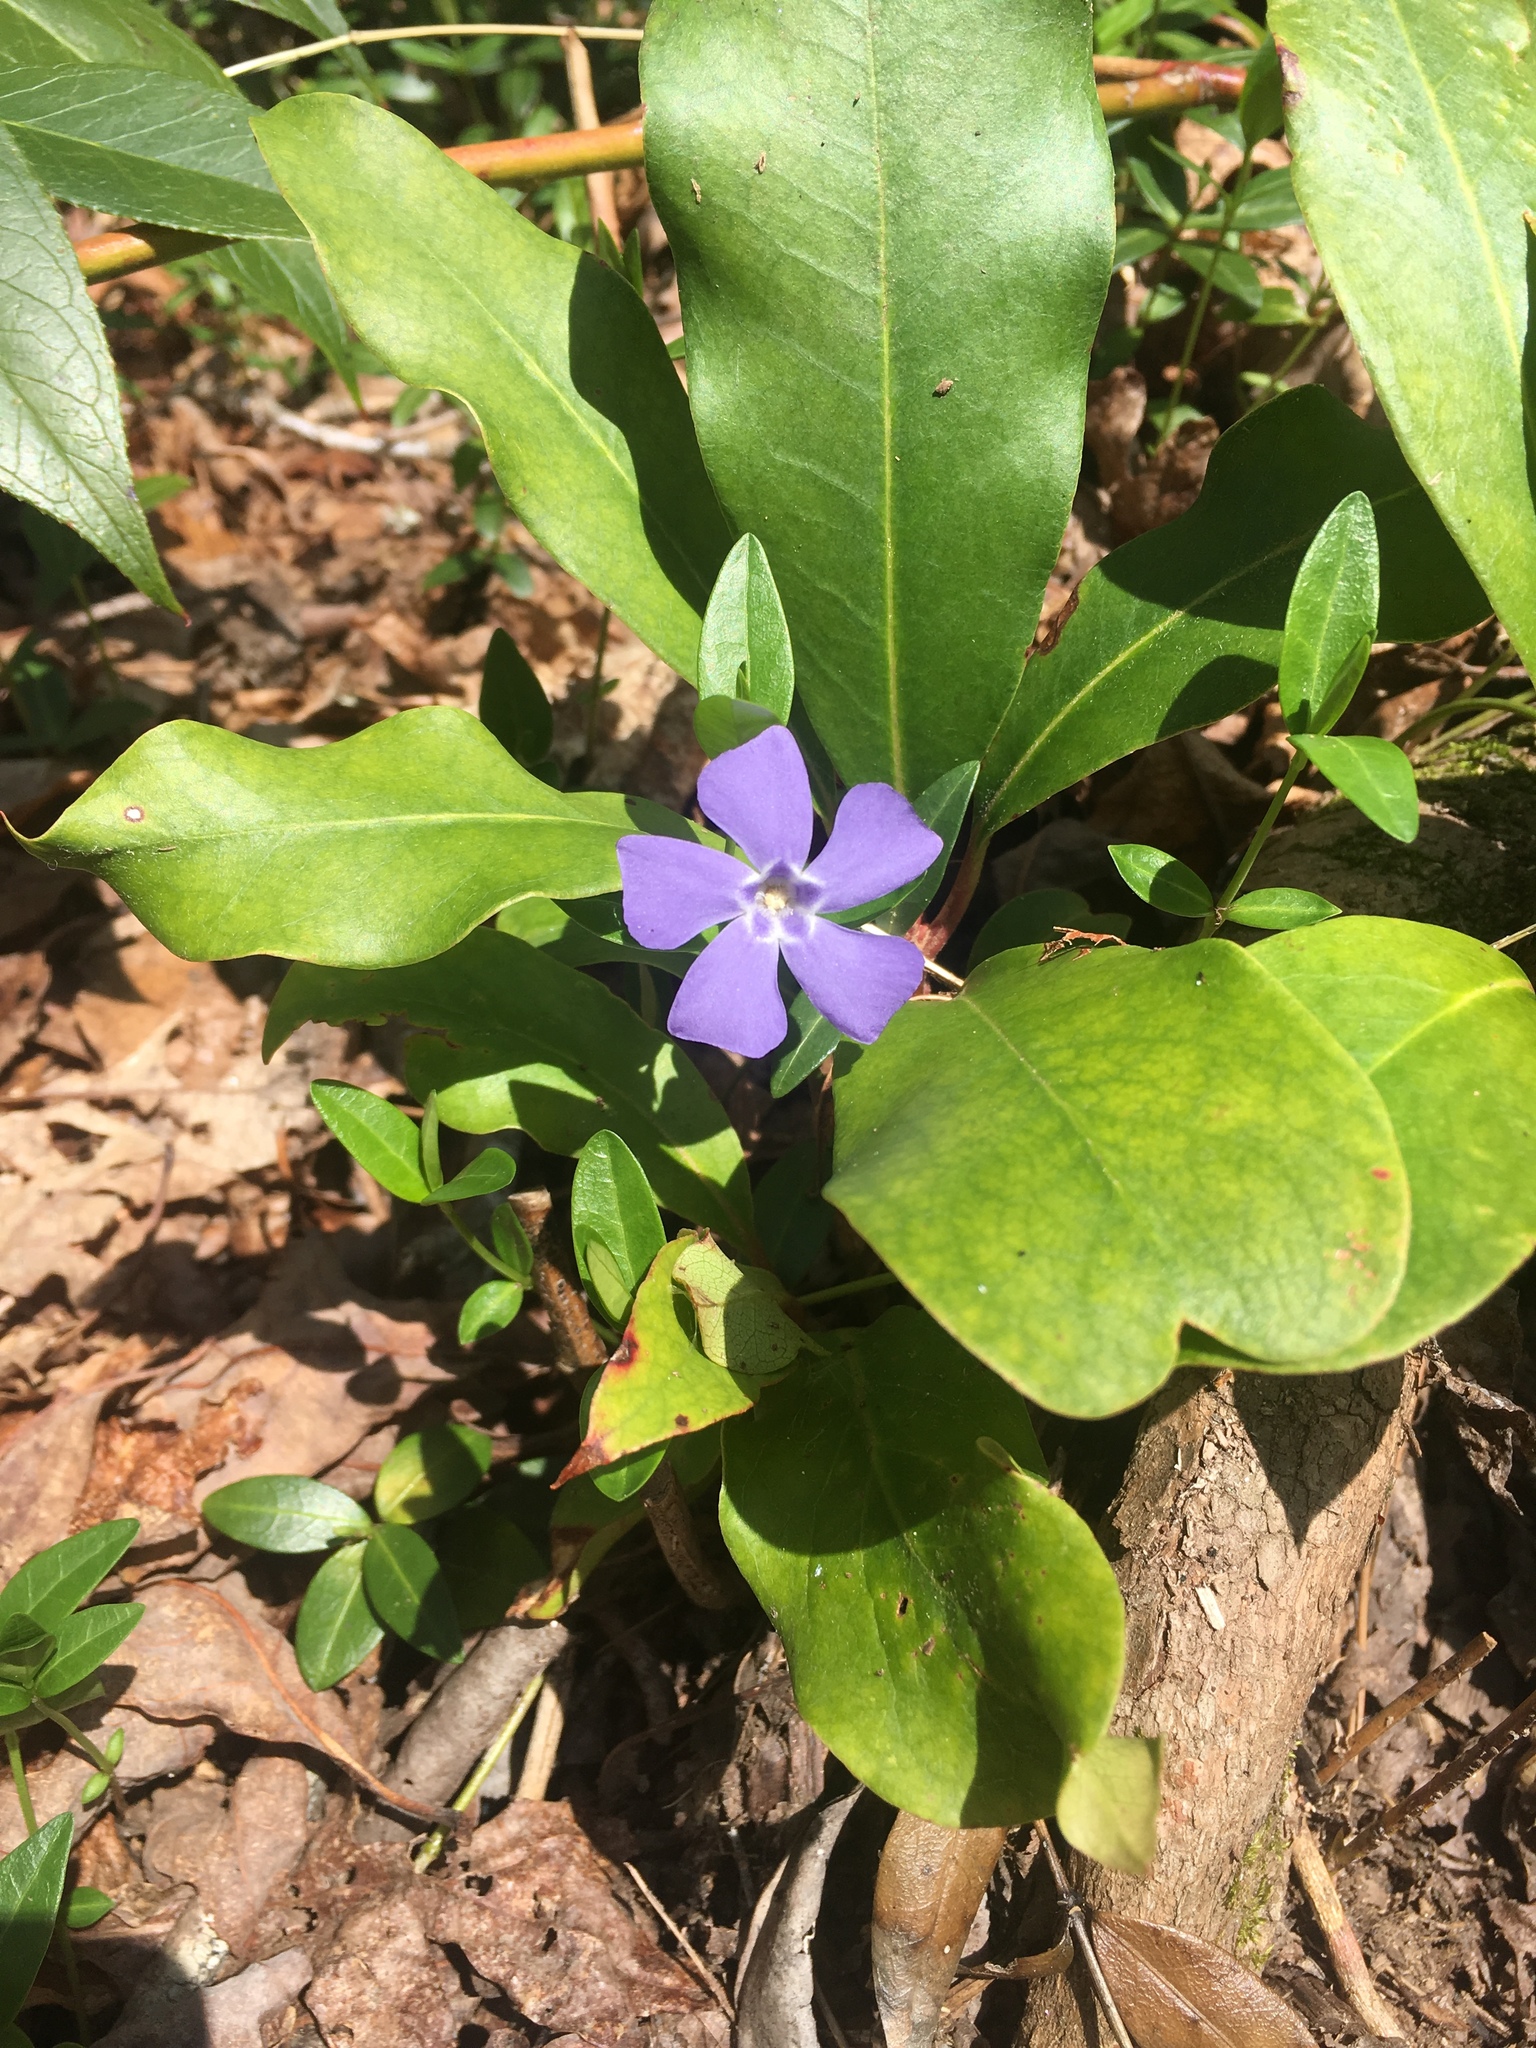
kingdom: Plantae
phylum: Tracheophyta
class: Magnoliopsida
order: Gentianales
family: Apocynaceae
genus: Vinca
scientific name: Vinca minor
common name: Lesser periwinkle
